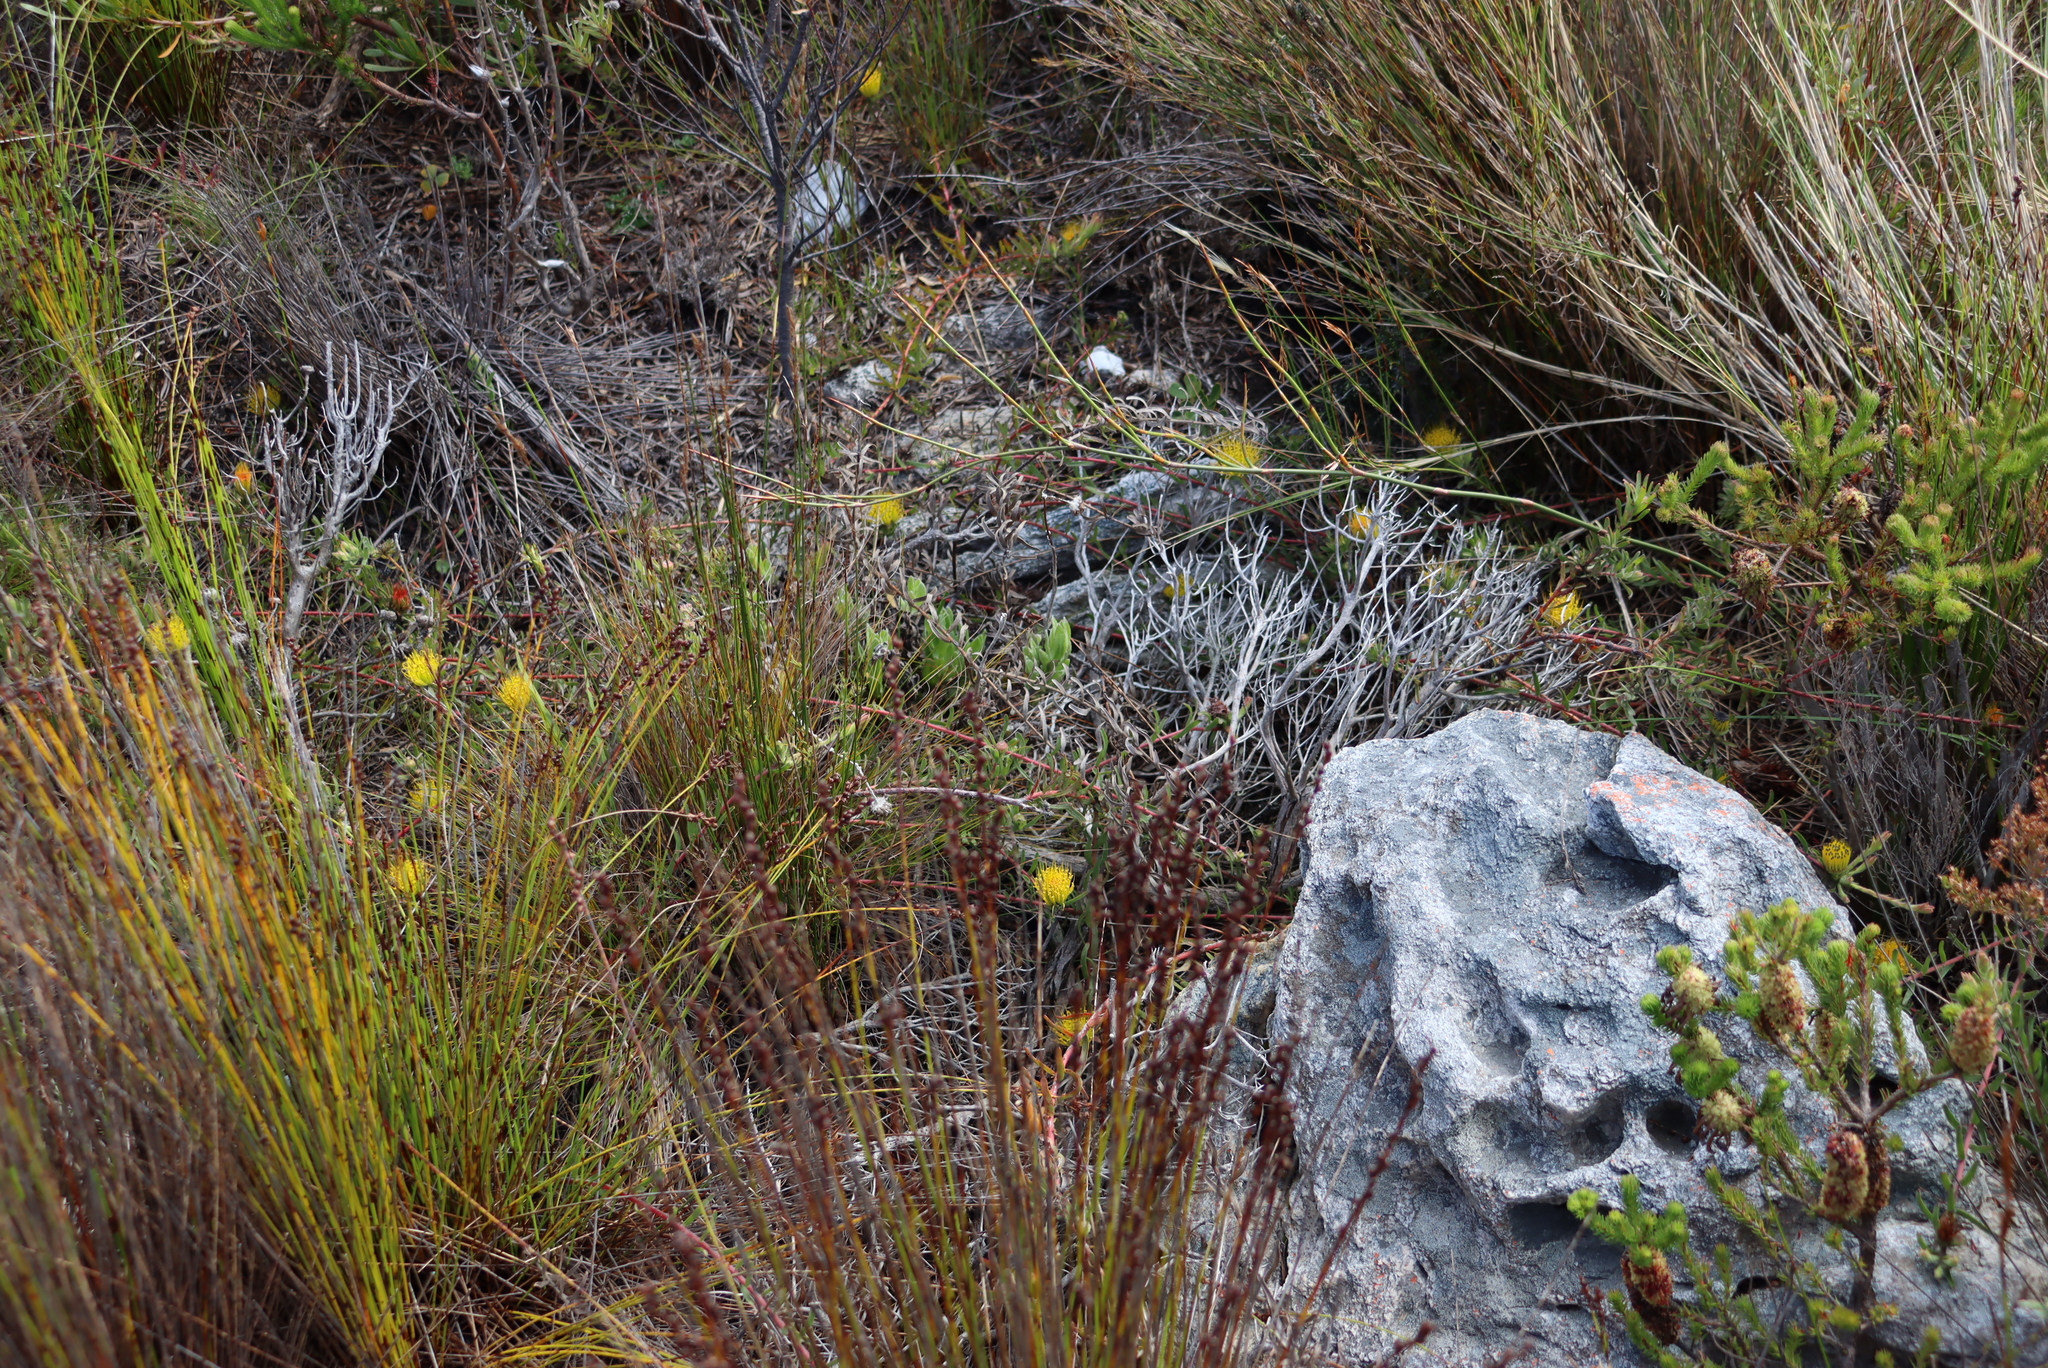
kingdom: Plantae
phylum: Tracheophyta
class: Magnoliopsida
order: Proteales
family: Proteaceae
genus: Leucospermum
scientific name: Leucospermum gracile
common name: Hermanus pincushion
